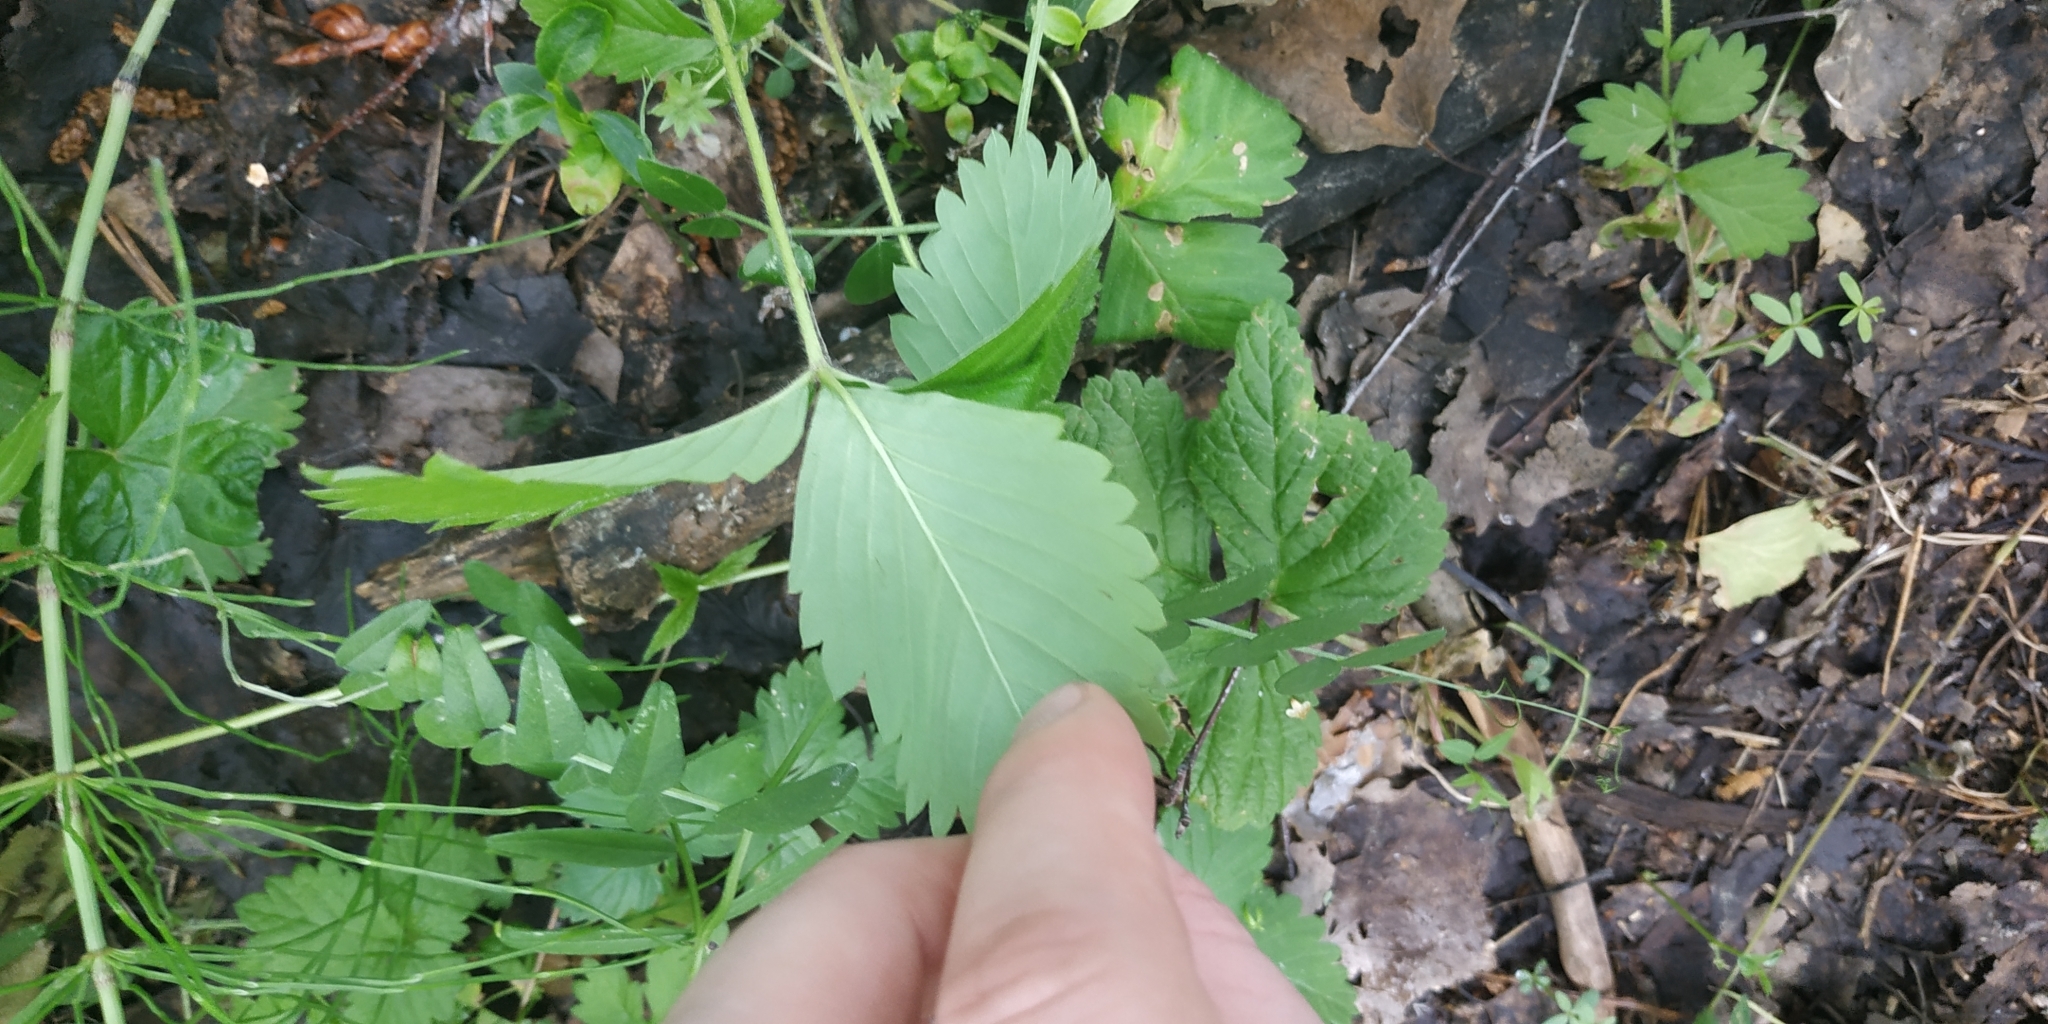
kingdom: Plantae
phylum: Tracheophyta
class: Magnoliopsida
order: Rosales
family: Rosaceae
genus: Fragaria
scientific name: Fragaria vesca
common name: Wild strawberry
